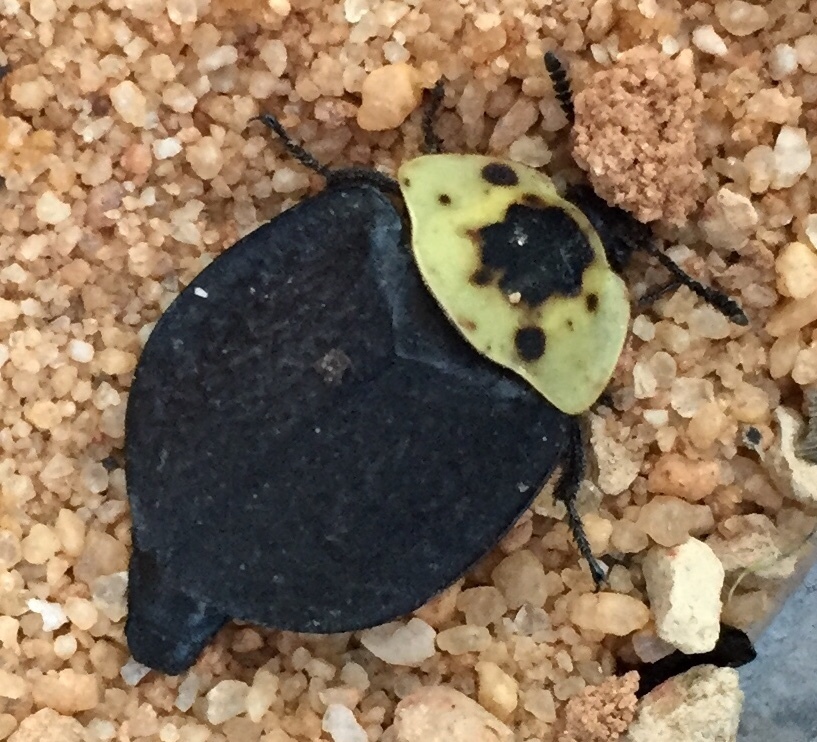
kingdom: Animalia
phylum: Arthropoda
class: Insecta
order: Coleoptera
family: Staphylinidae
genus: Necrophila
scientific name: Necrophila americana
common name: American carrion beetle
